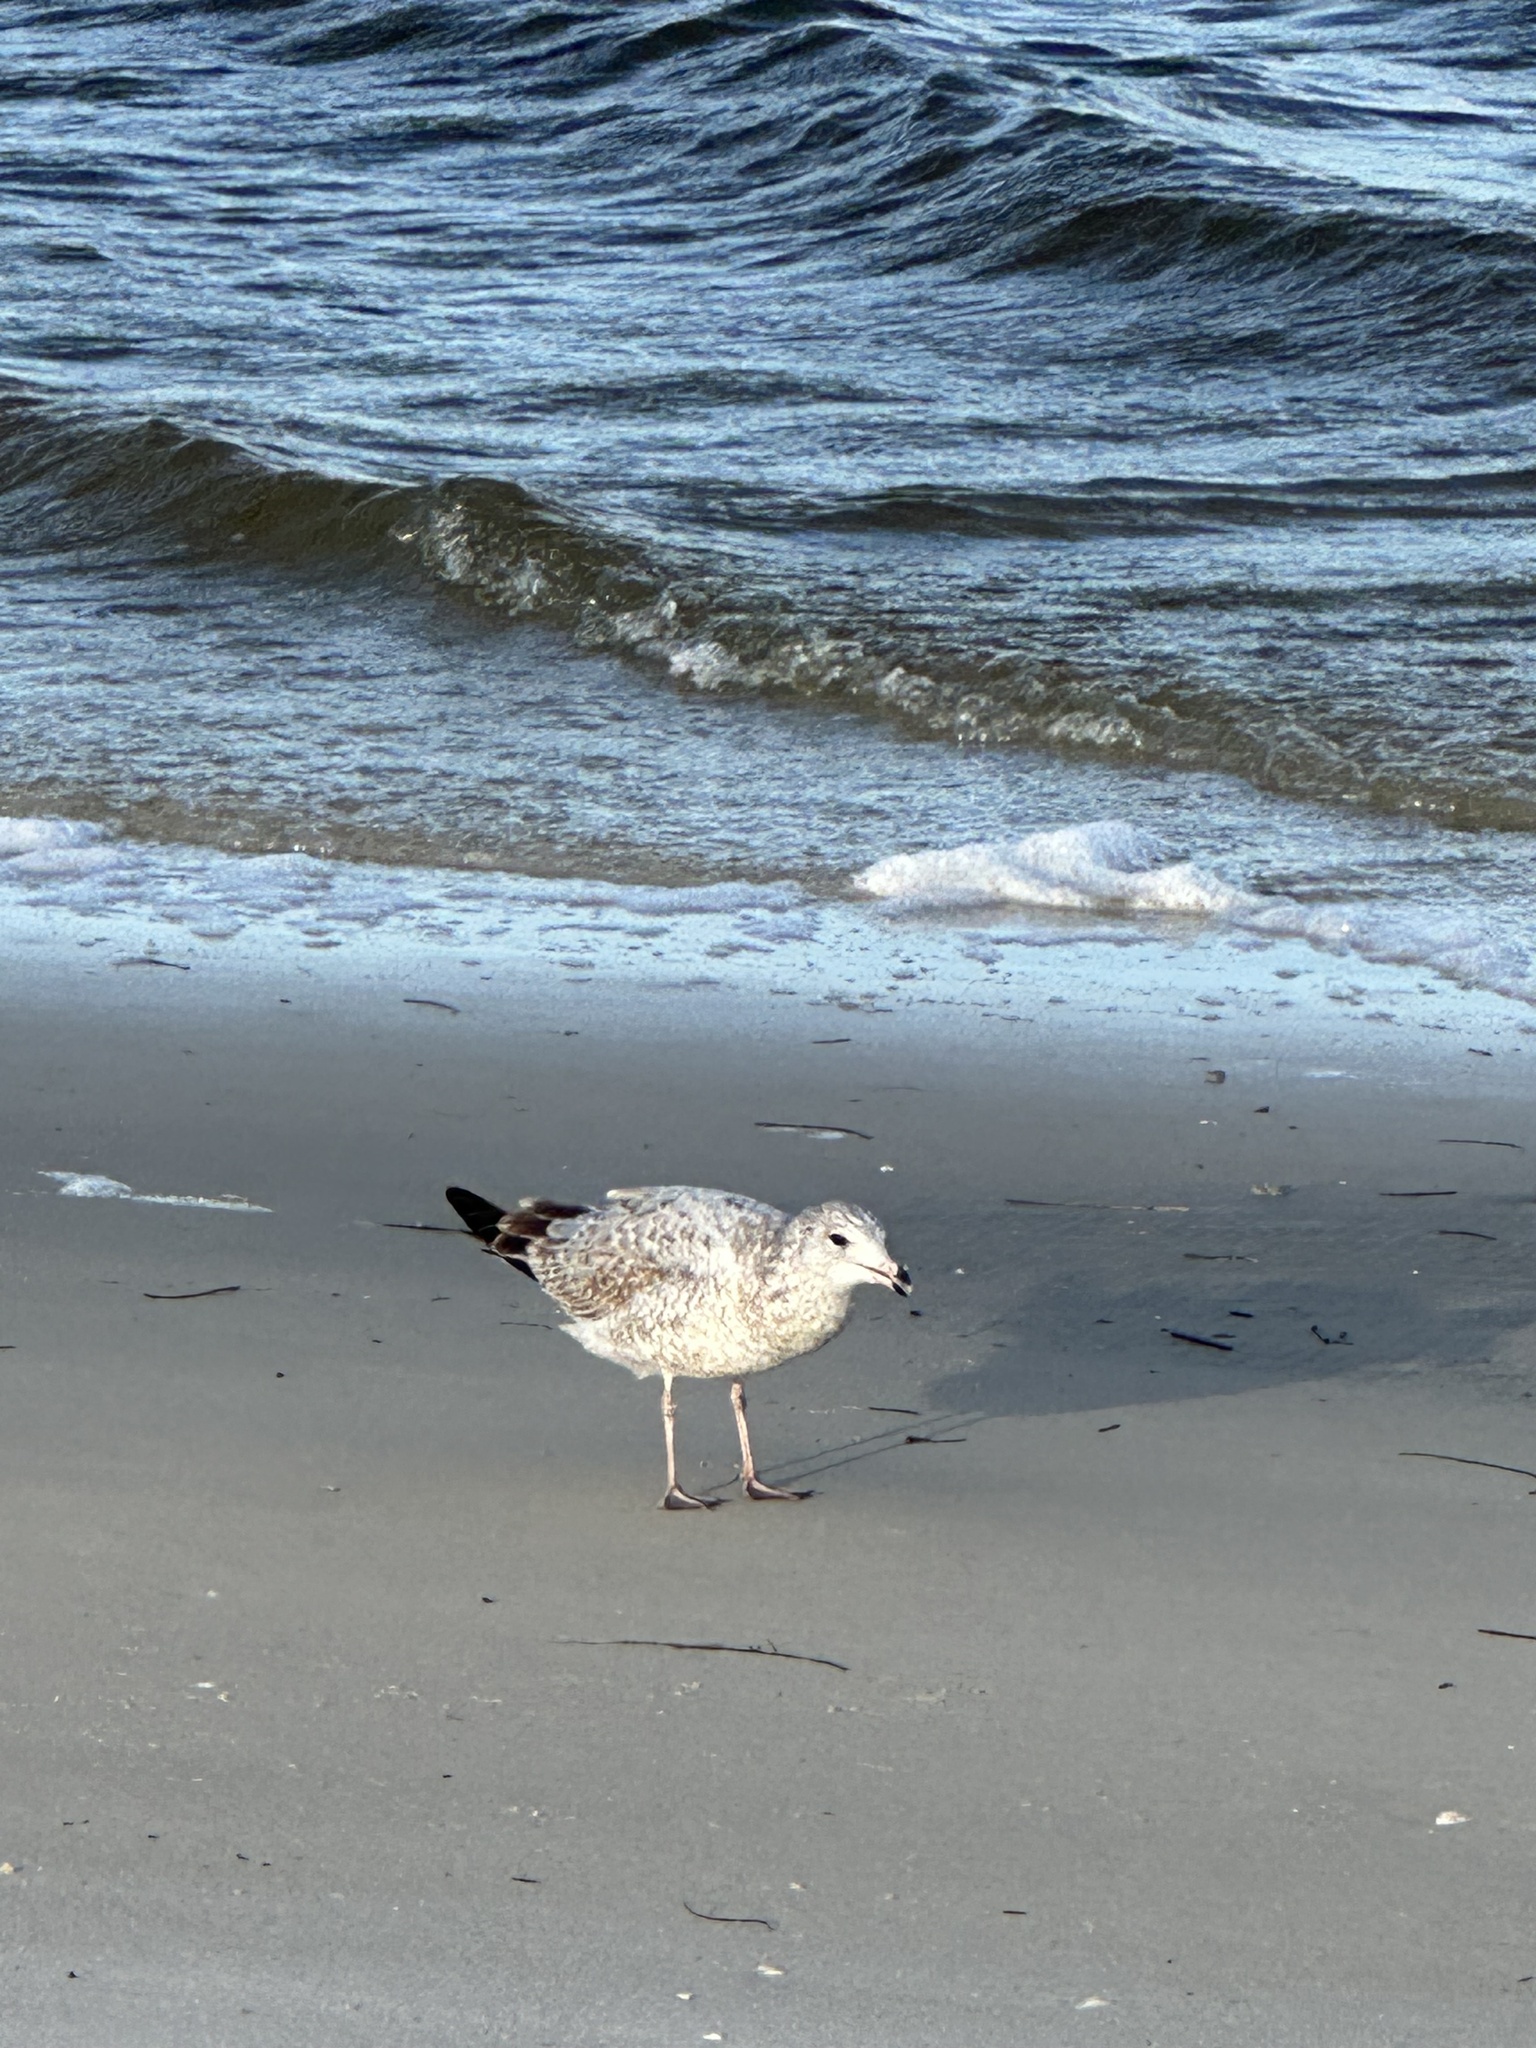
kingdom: Animalia
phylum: Chordata
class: Aves
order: Charadriiformes
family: Laridae
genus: Larus
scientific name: Larus delawarensis
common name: Ring-billed gull
